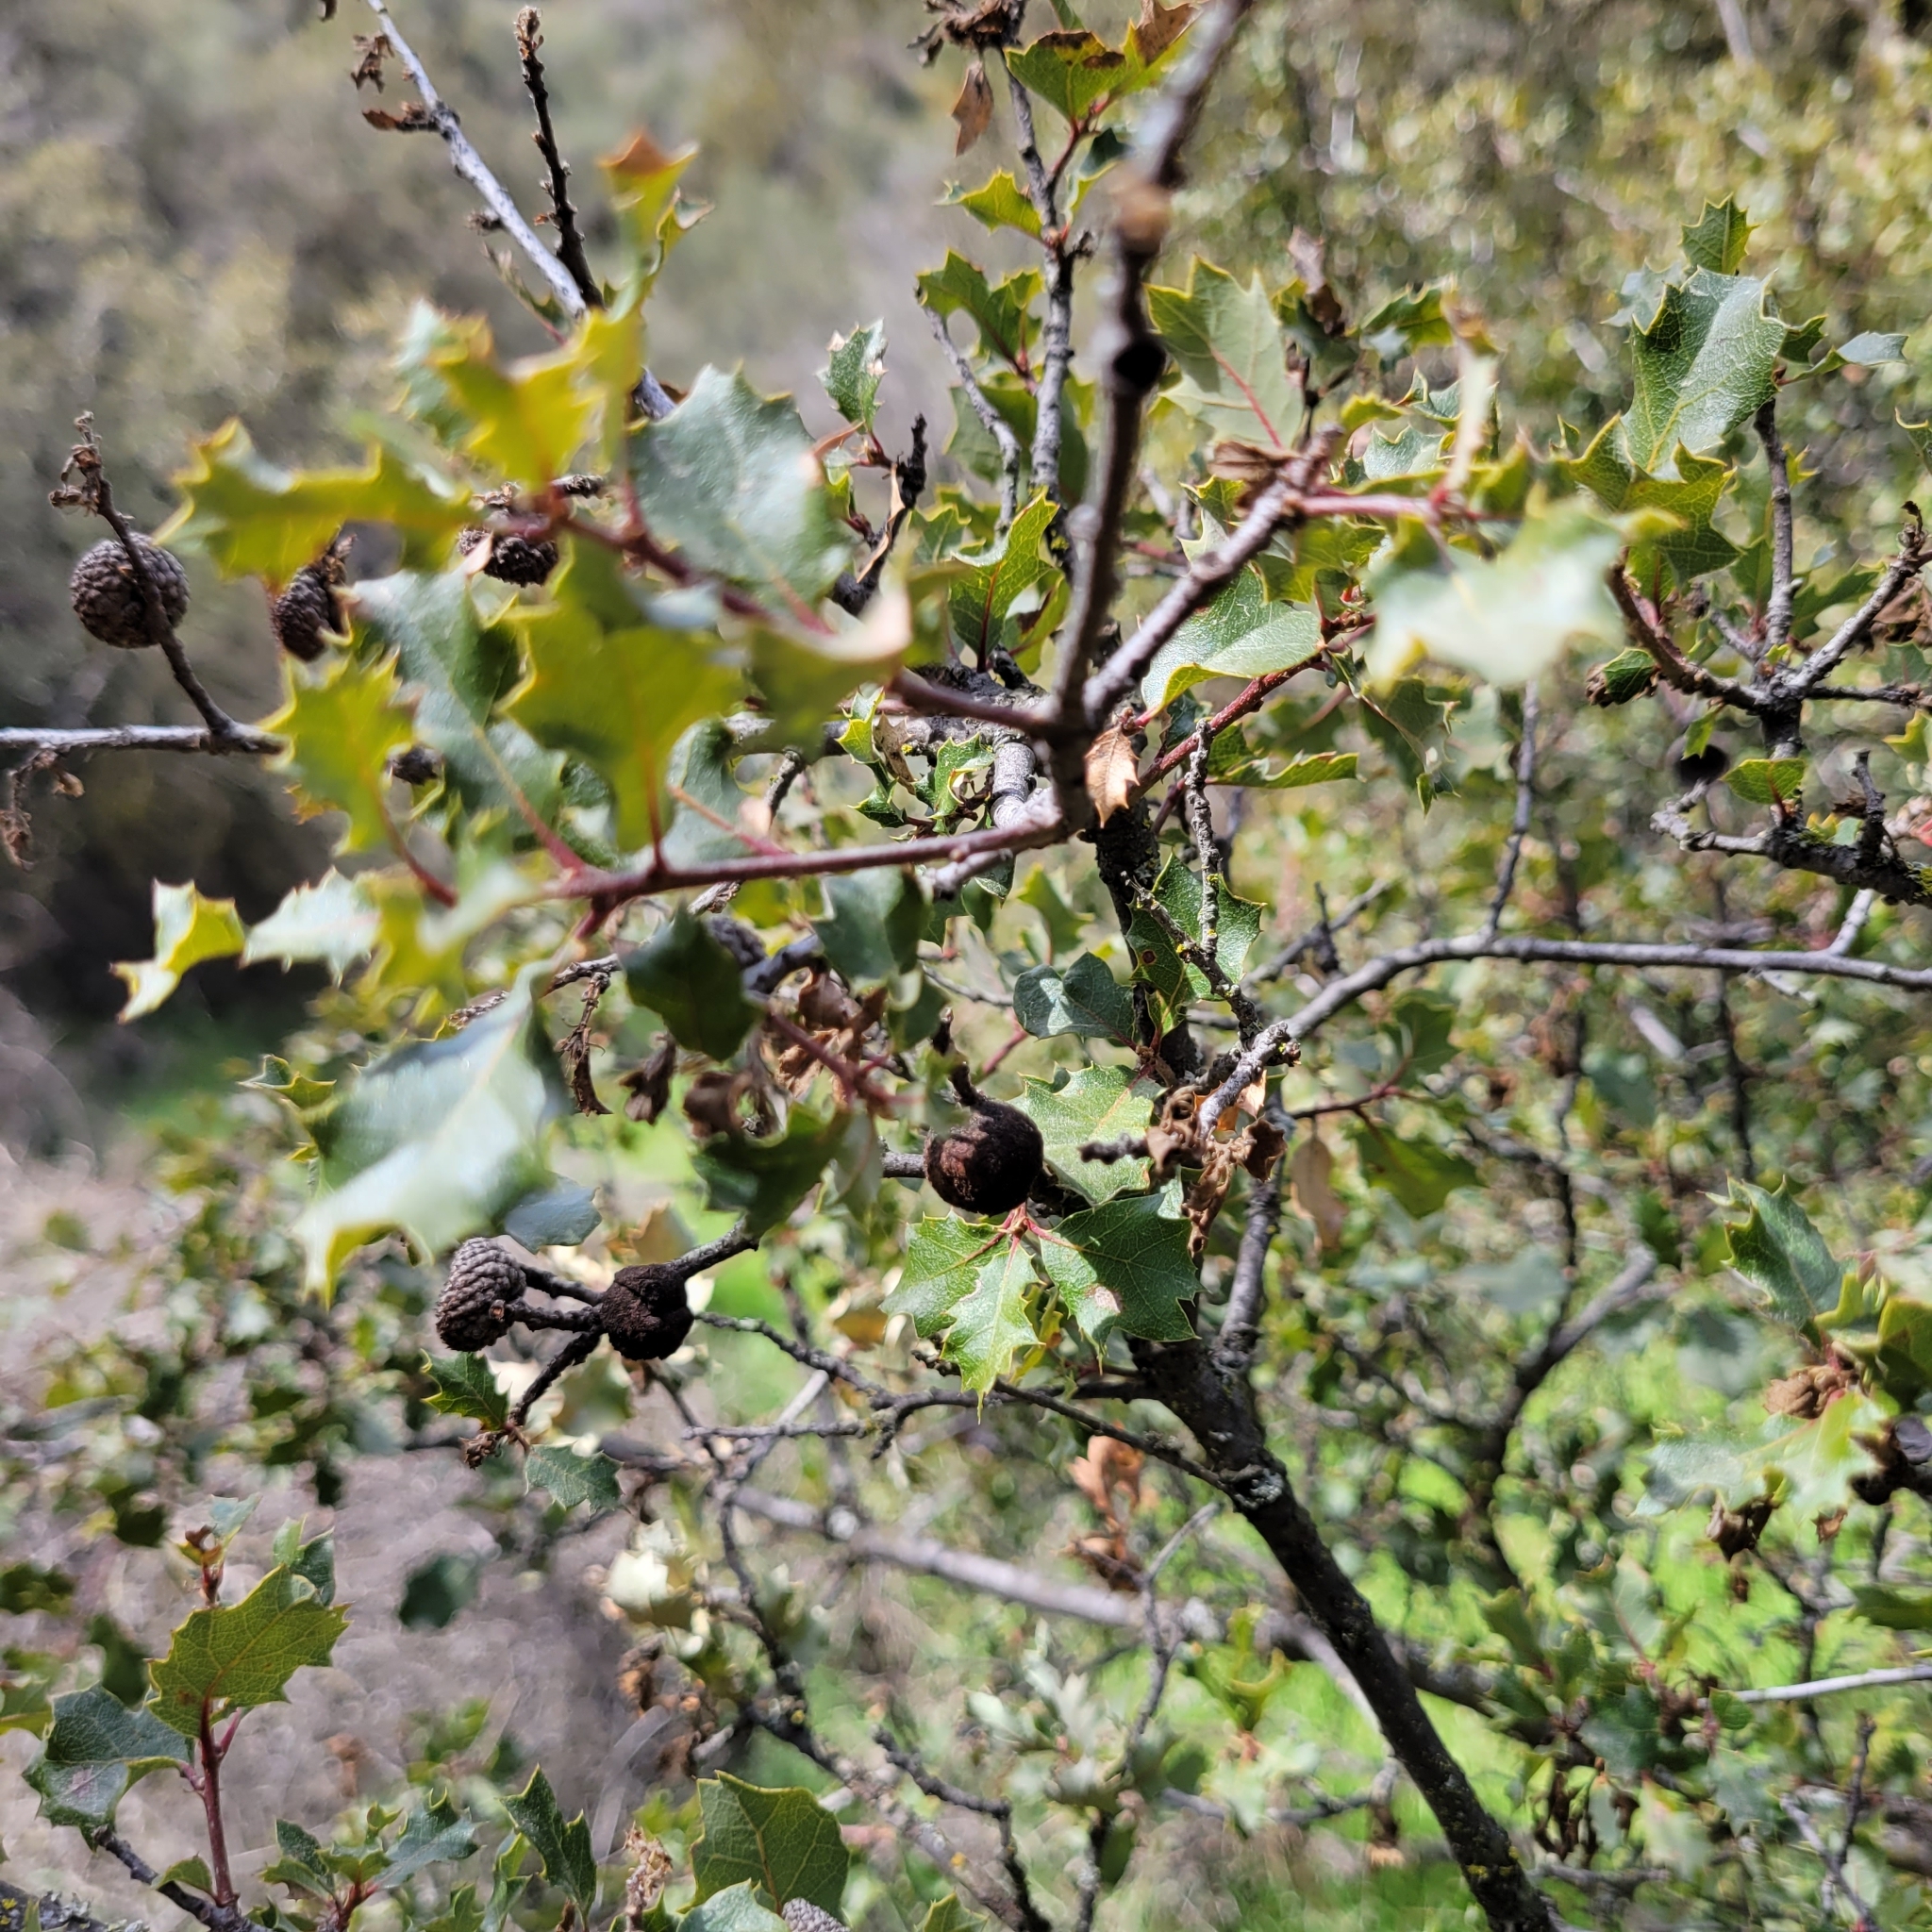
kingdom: Plantae
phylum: Tracheophyta
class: Magnoliopsida
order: Fagales
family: Fagaceae
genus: Quercus
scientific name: Quercus berberidifolia
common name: California scrub oak
